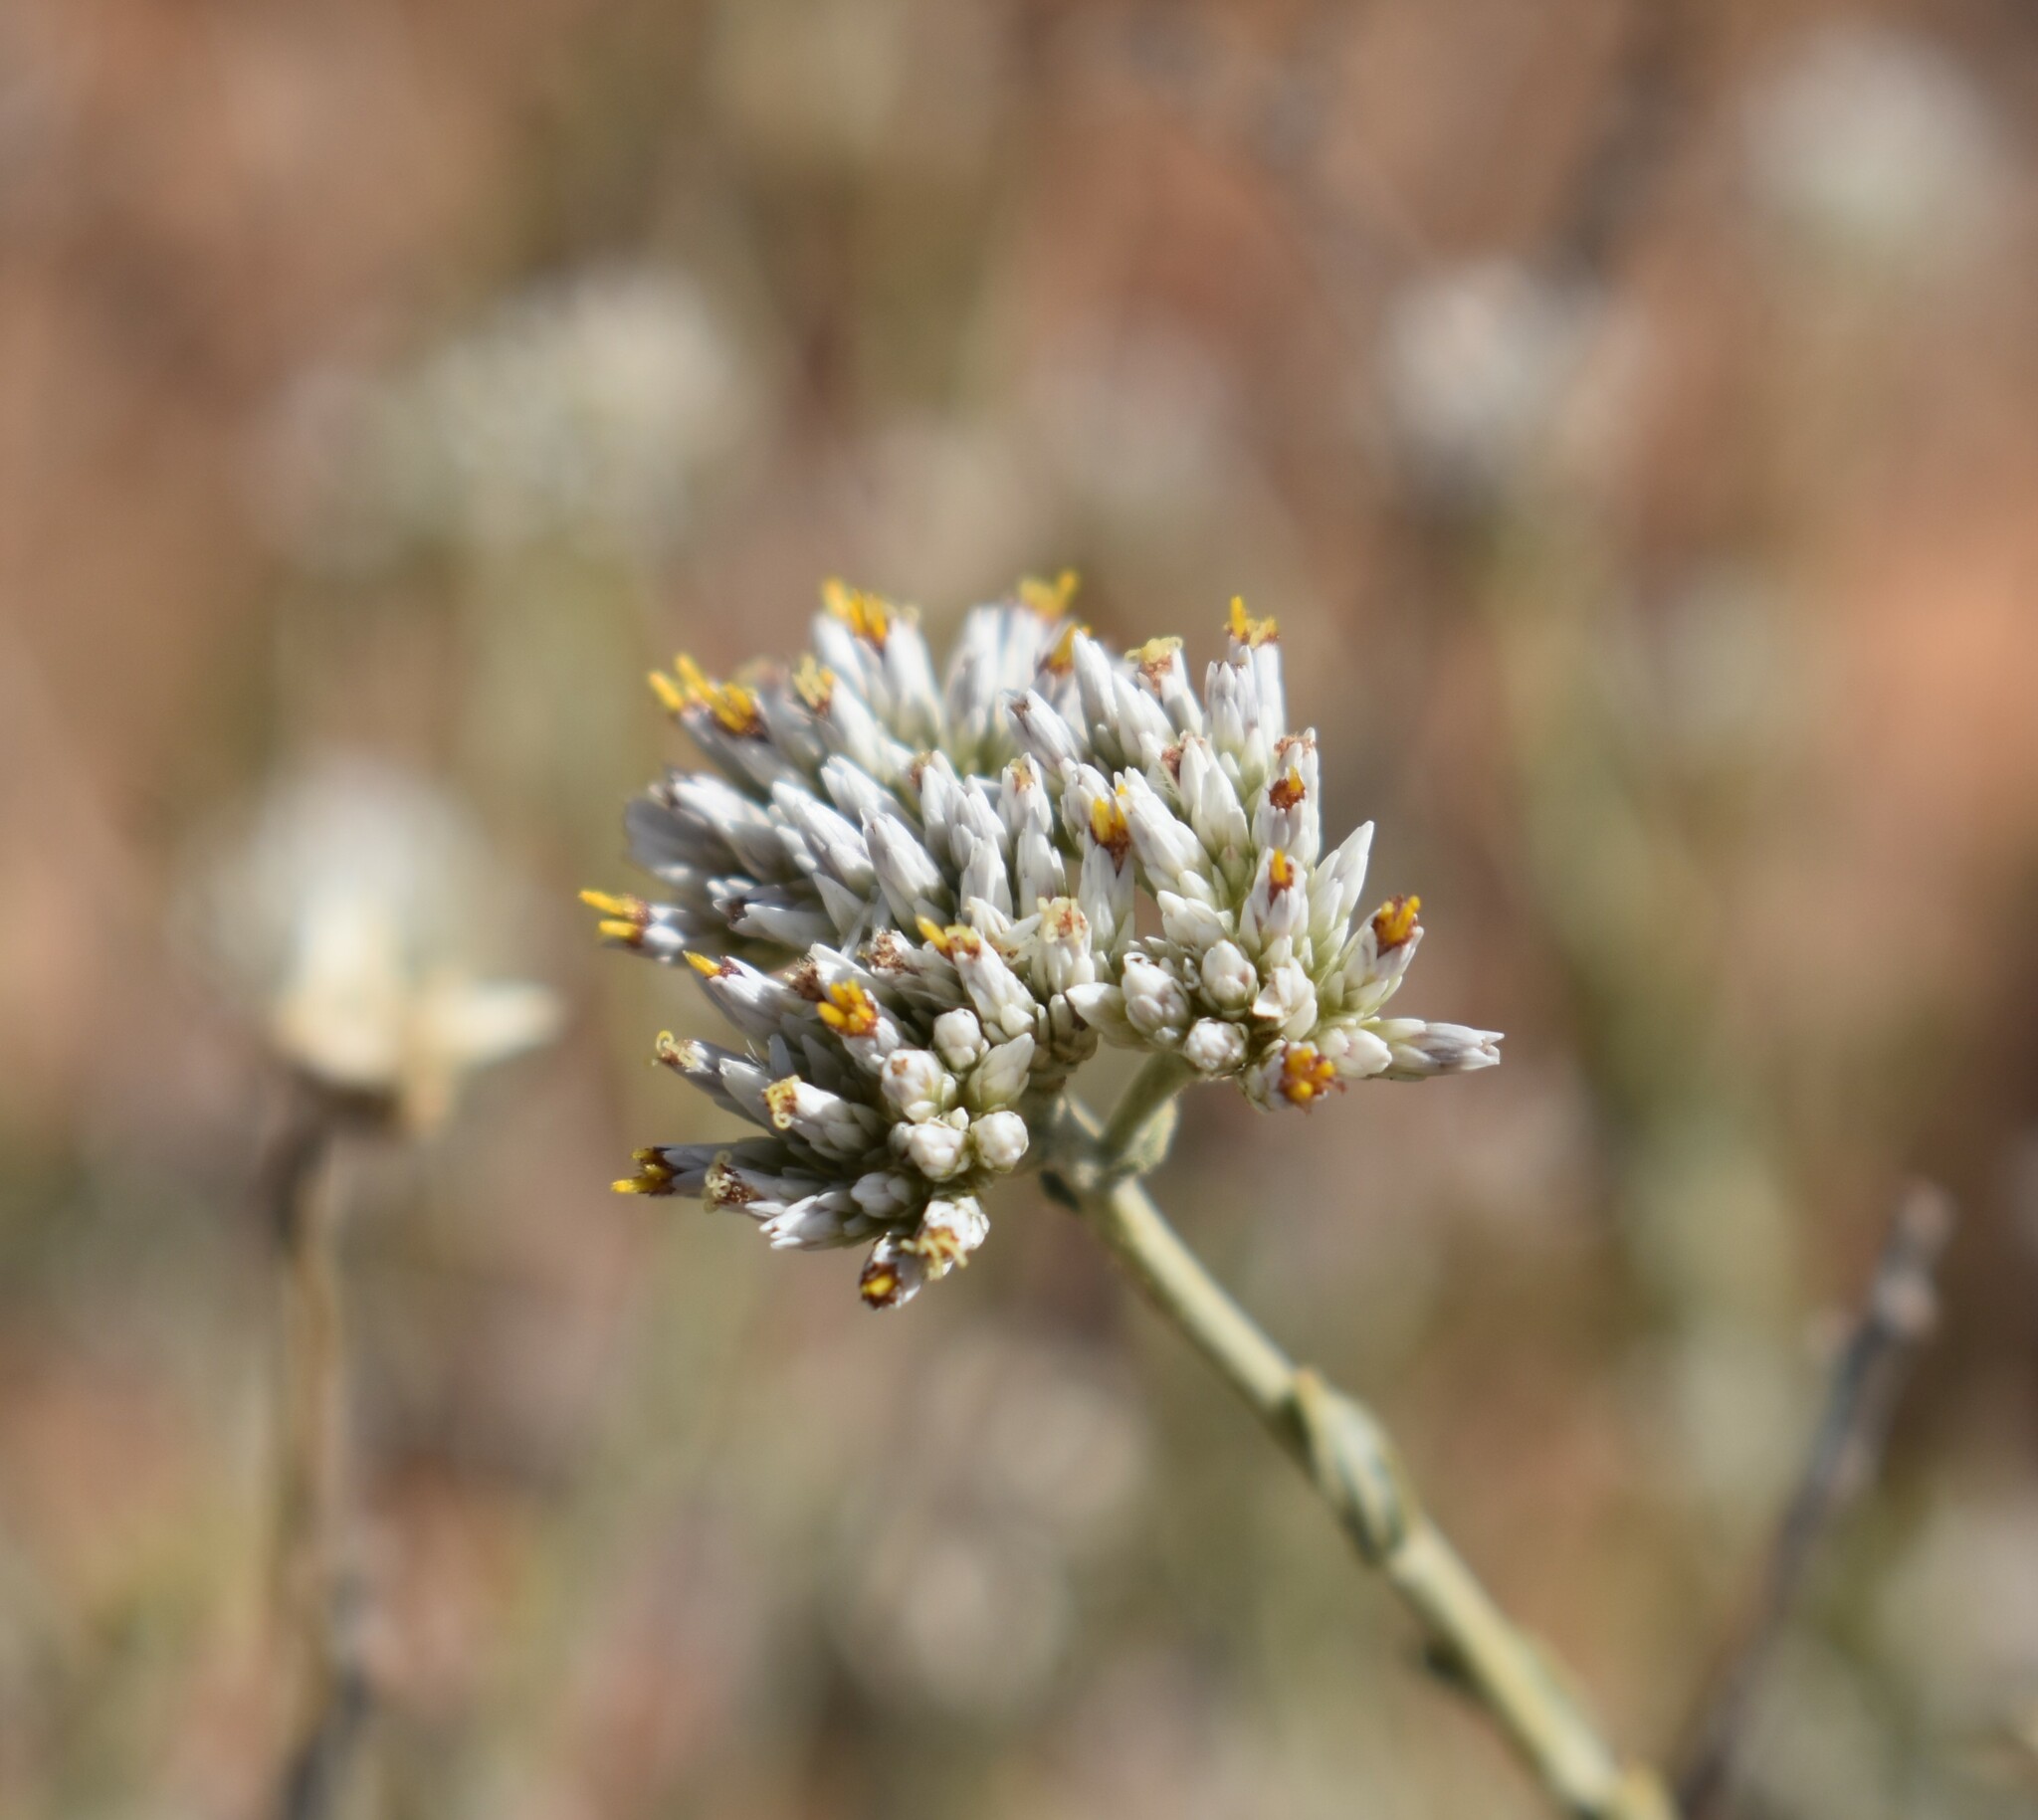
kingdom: Plantae
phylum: Tracheophyta
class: Magnoliopsida
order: Asterales
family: Asteraceae
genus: Helichrysum
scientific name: Helichrysum zeyheri
